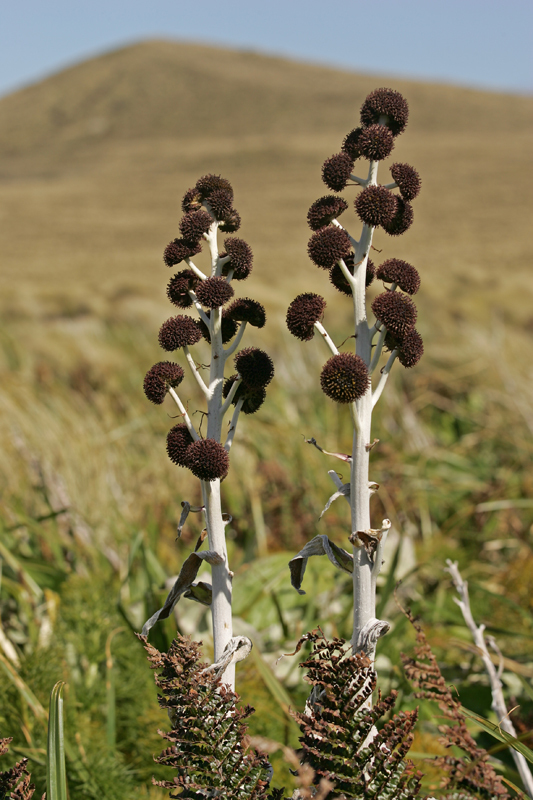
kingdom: Plantae
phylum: Tracheophyta
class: Magnoliopsida
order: Asterales
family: Asteraceae
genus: Pleurophyllum
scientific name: Pleurophyllum criniferum
